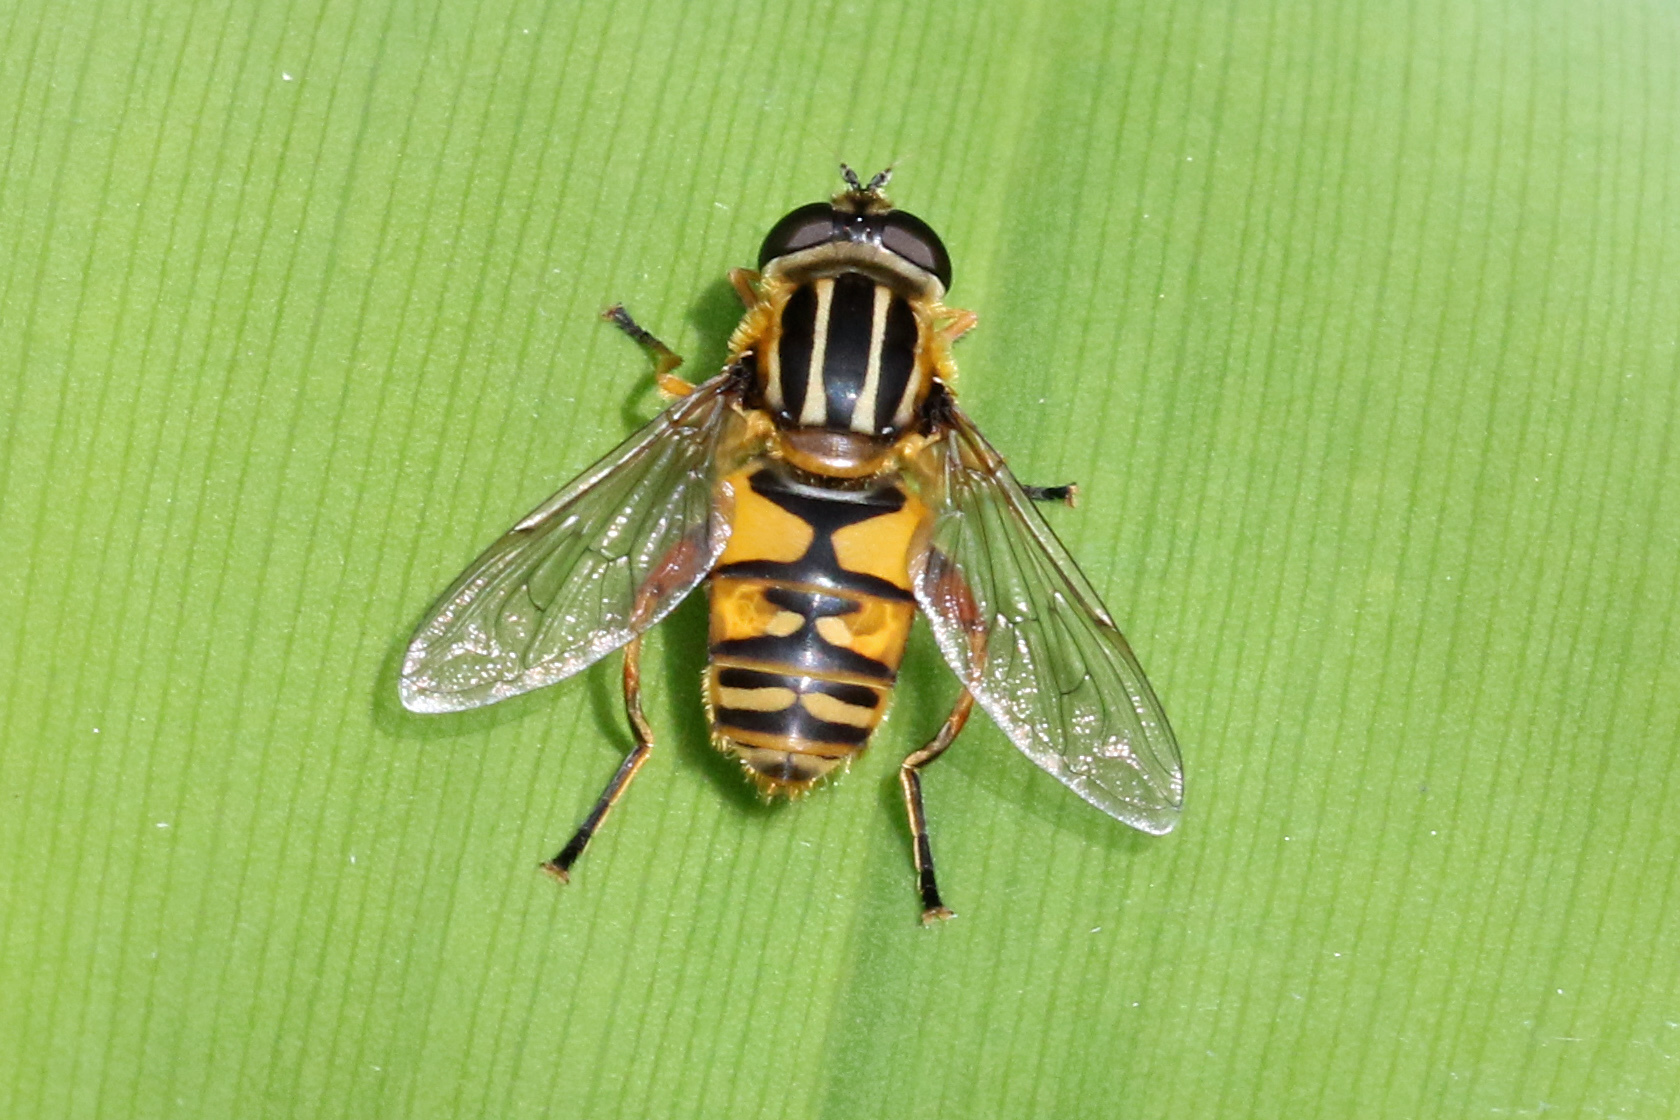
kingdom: Animalia
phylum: Arthropoda
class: Insecta
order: Diptera
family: Syrphidae
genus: Helophilus
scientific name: Helophilus pendulus
